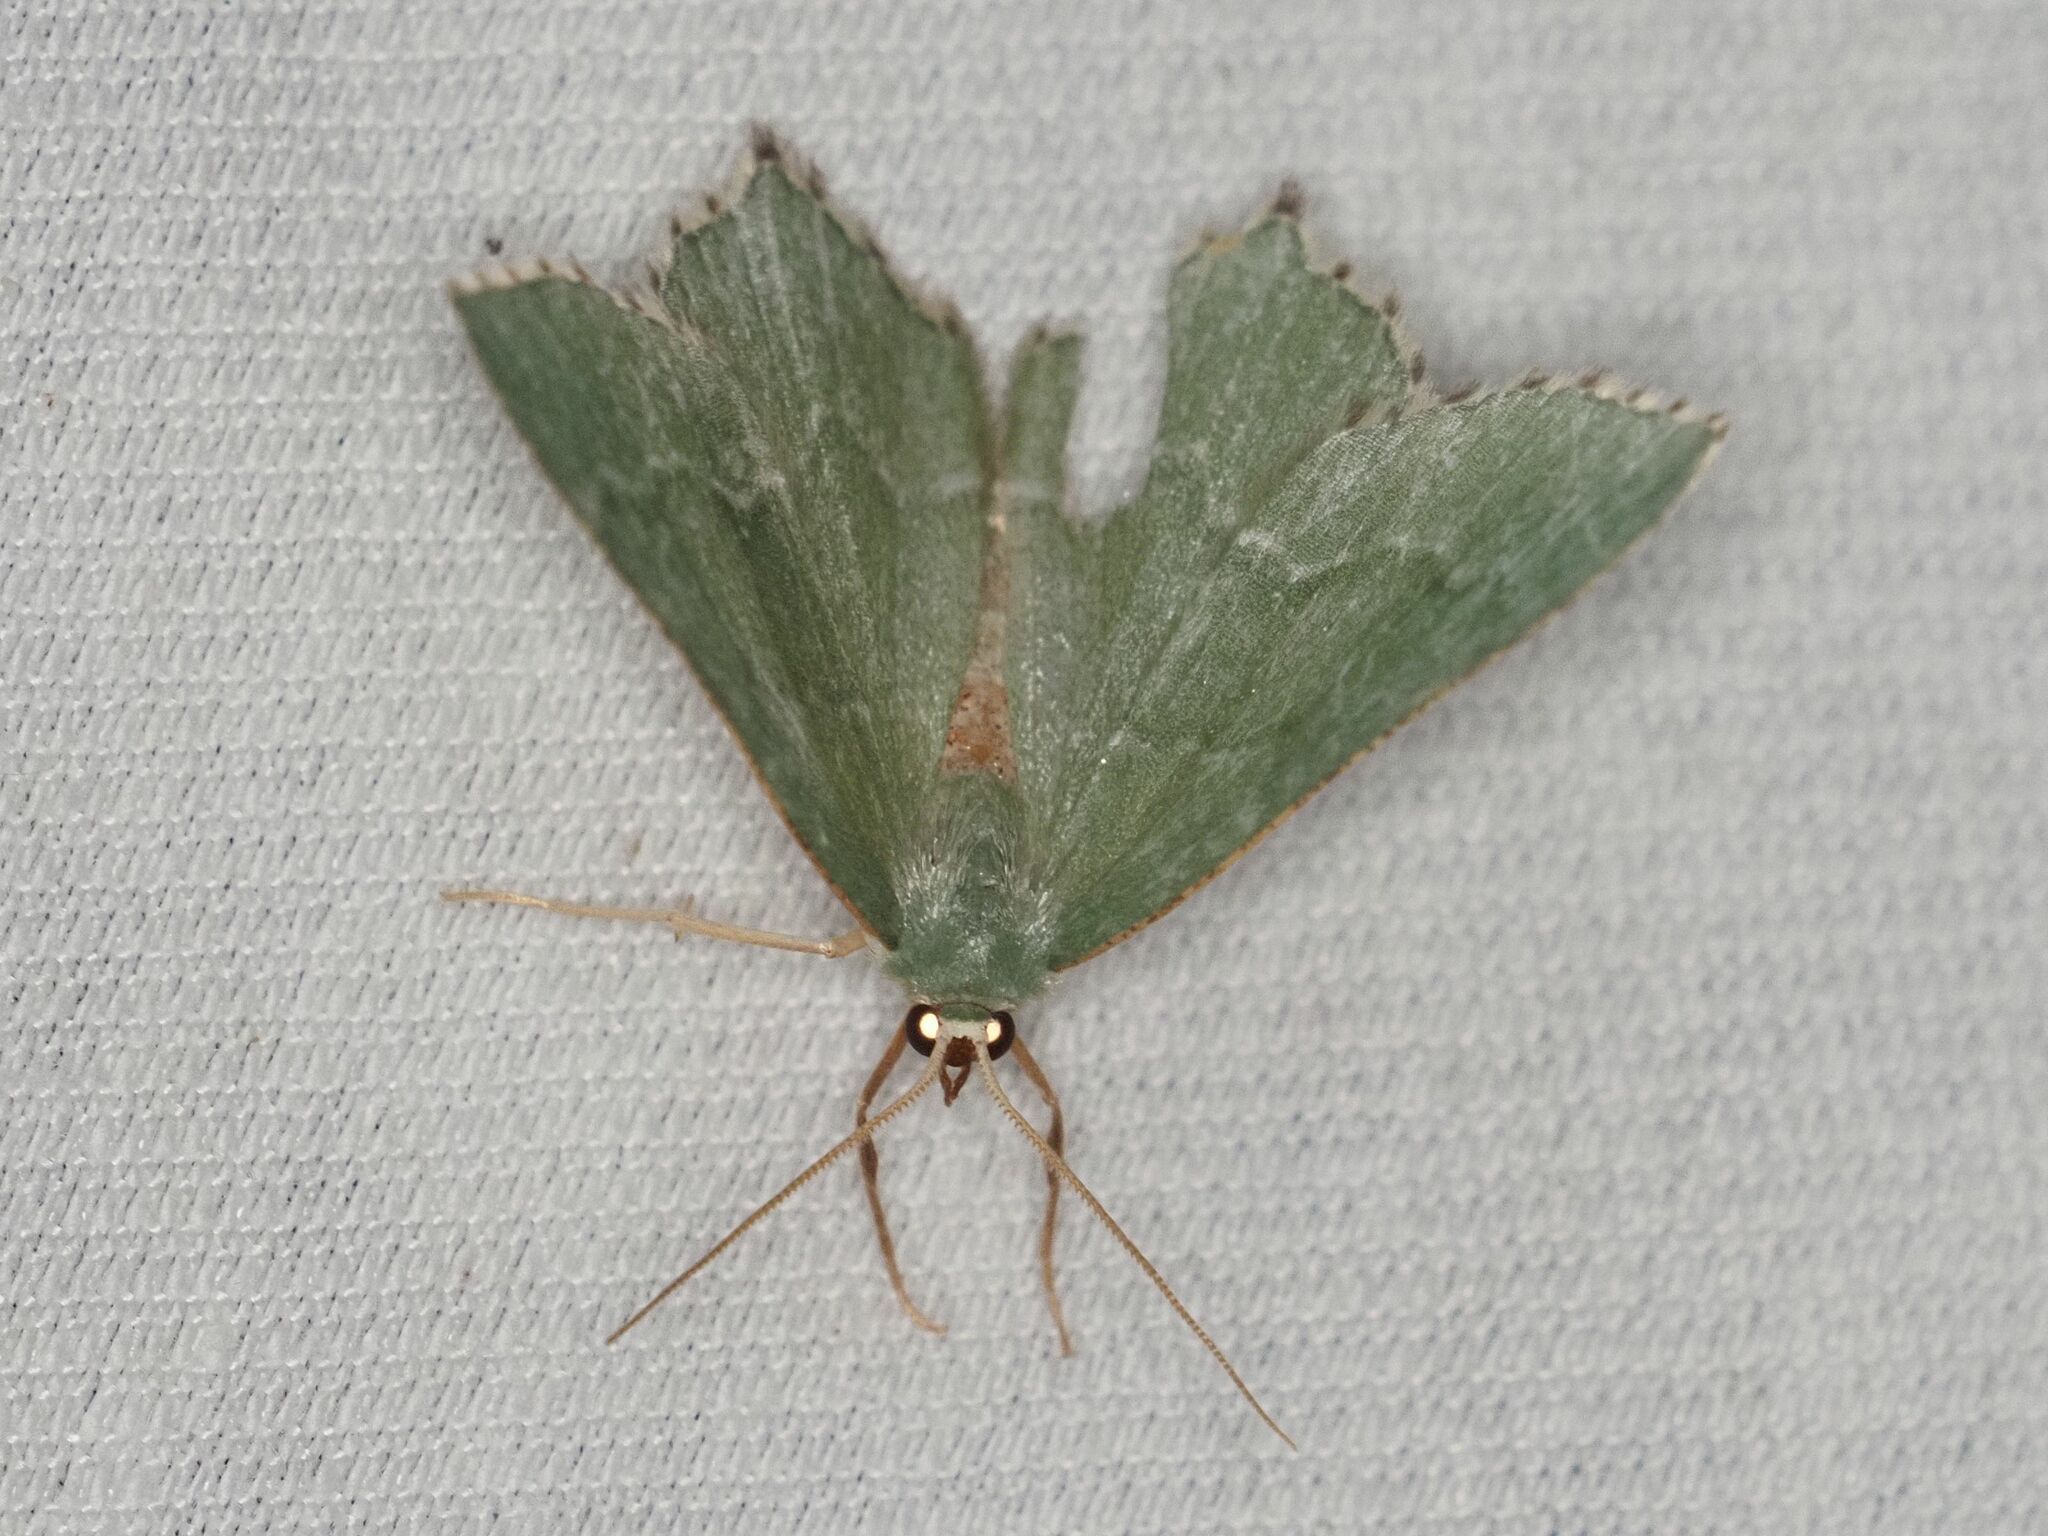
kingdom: Animalia
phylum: Arthropoda
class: Insecta
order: Lepidoptera
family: Geometridae
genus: Hemithea
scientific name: Hemithea aestivaria
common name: Common emerald
